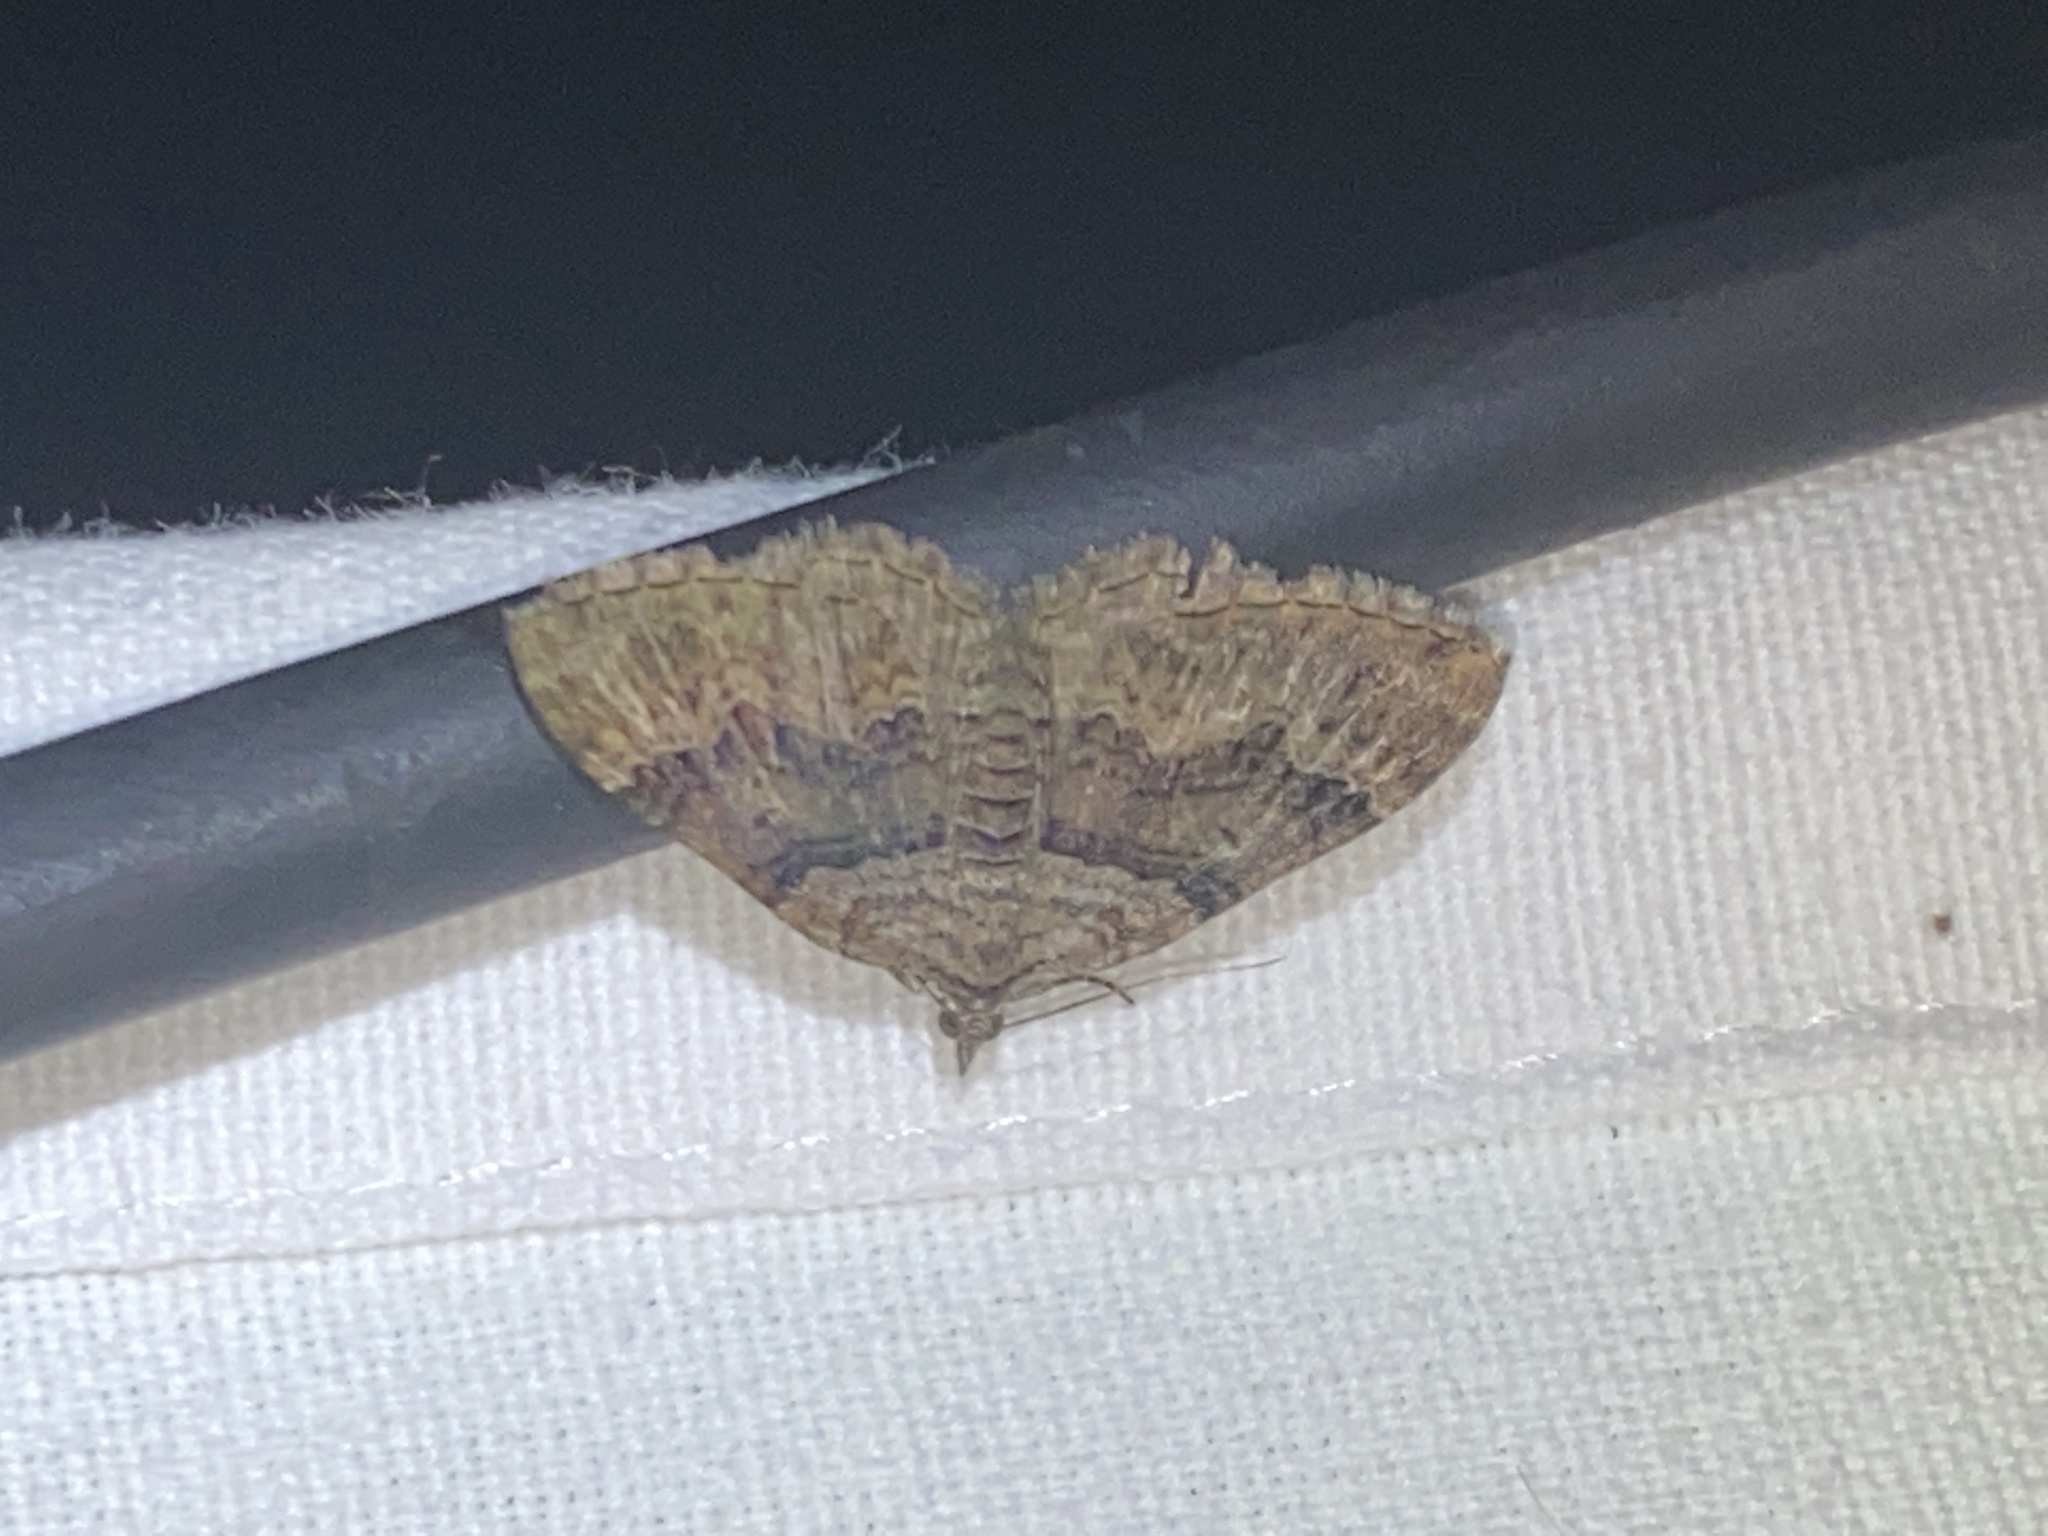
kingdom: Animalia
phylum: Arthropoda
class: Insecta
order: Lepidoptera
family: Geometridae
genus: Xanthorhoe
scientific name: Xanthorhoe quadrifasiata
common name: Large twin-spot carpet
